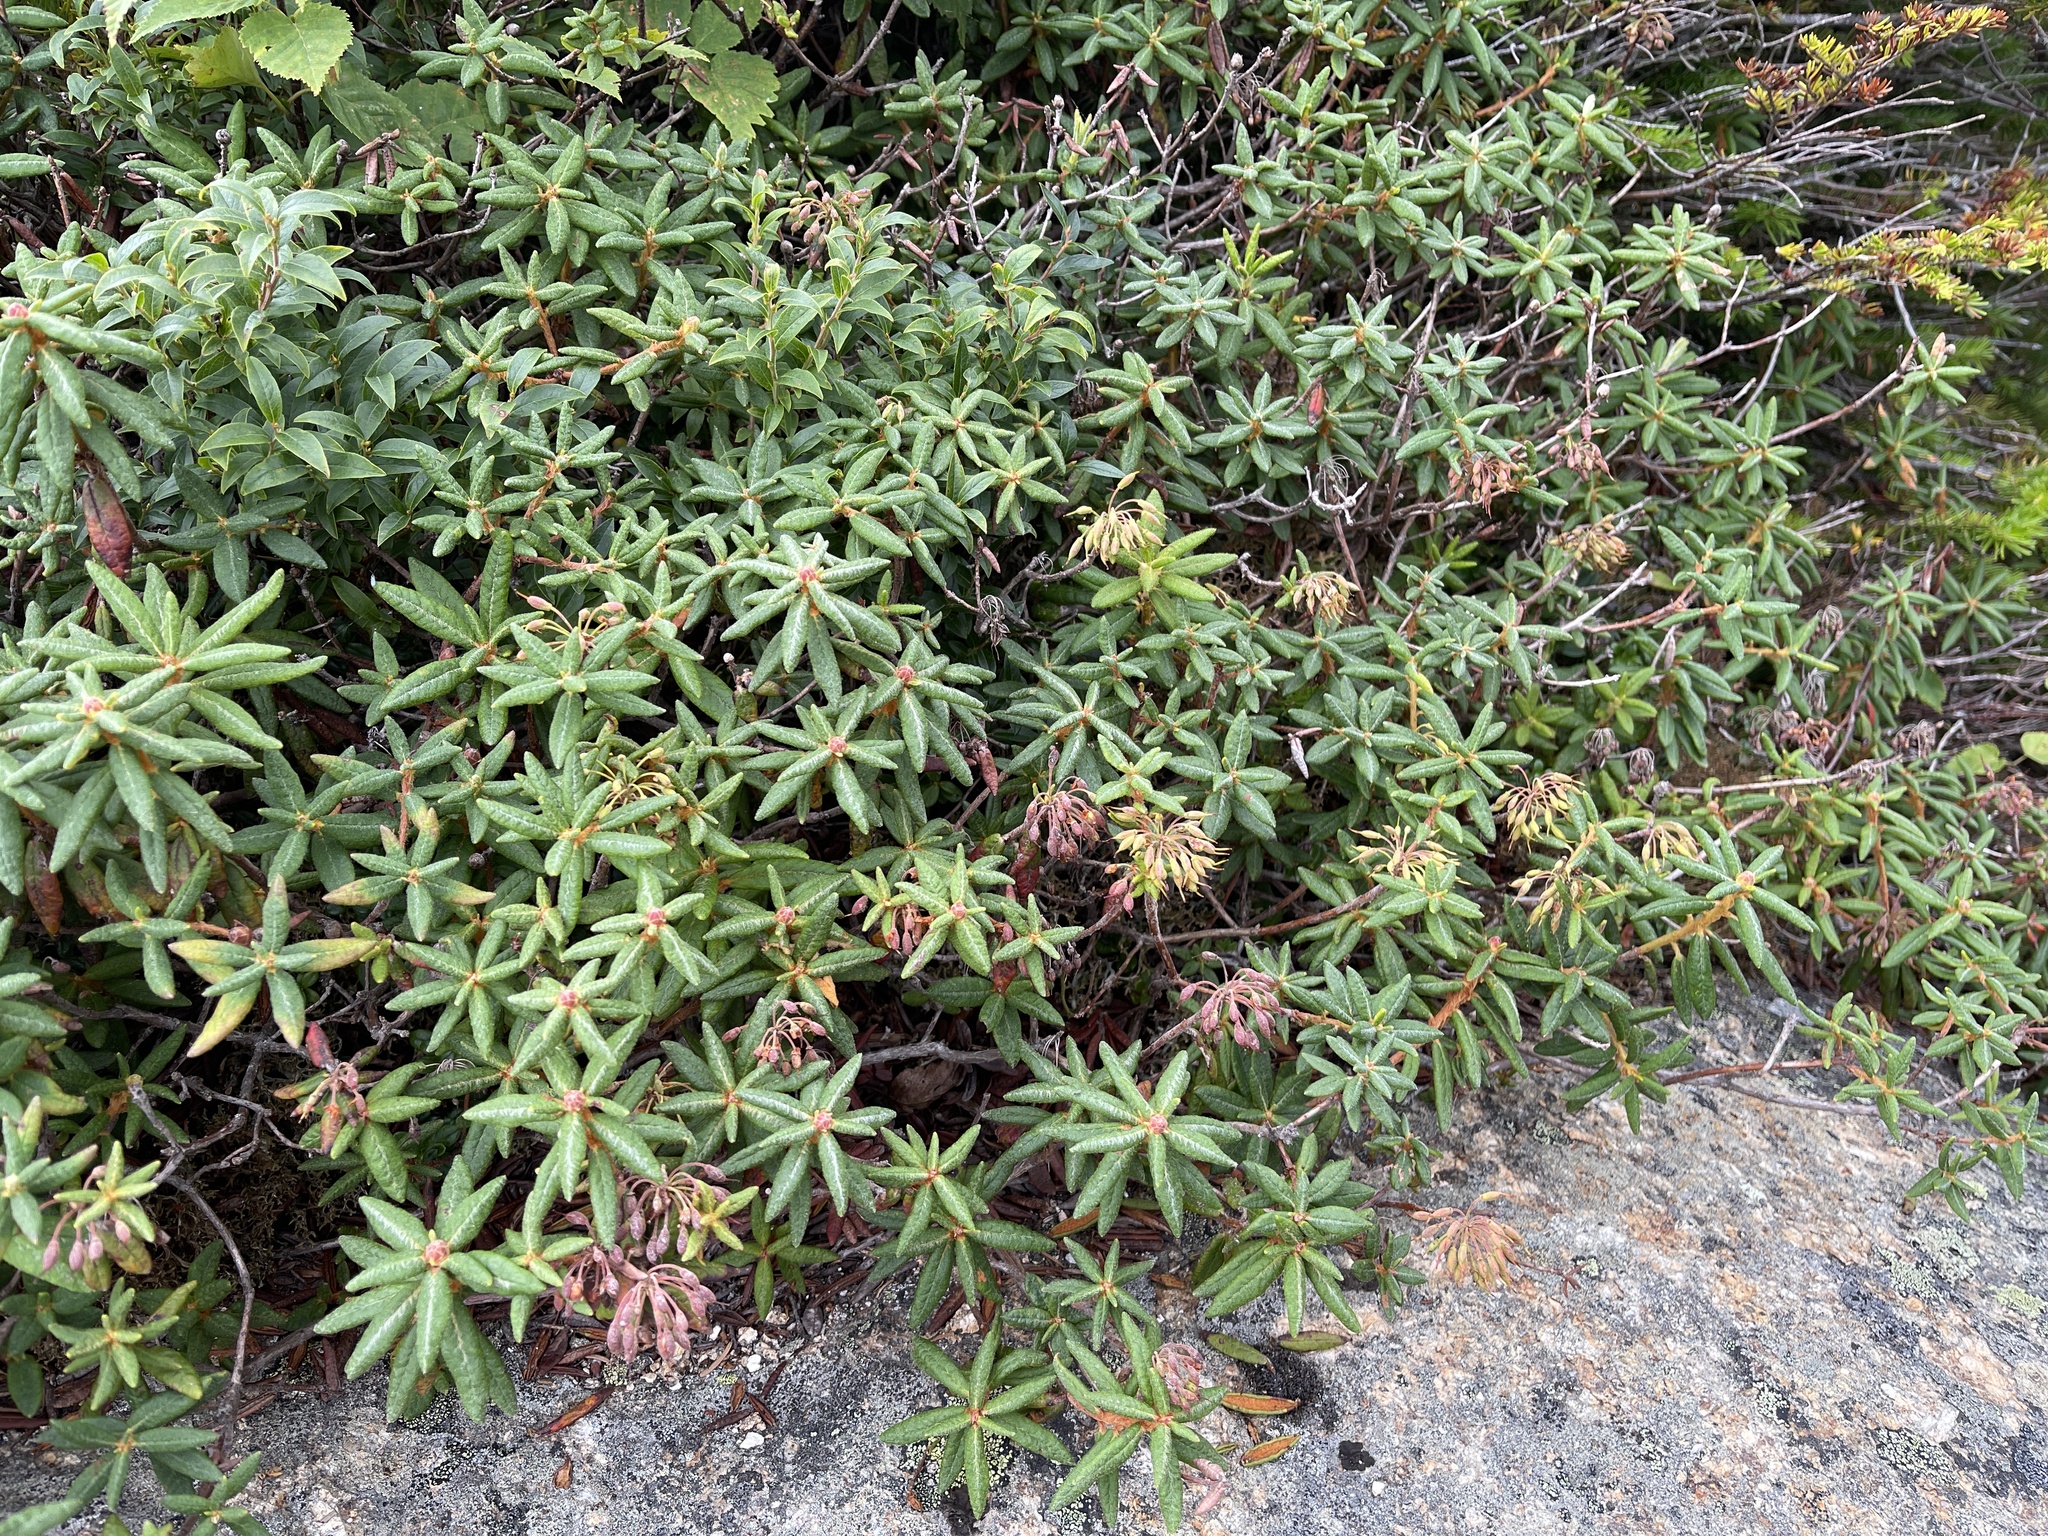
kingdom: Plantae
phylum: Tracheophyta
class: Magnoliopsida
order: Ericales
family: Ericaceae
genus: Rhododendron
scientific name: Rhododendron groenlandicum
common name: Bog labrador tea
